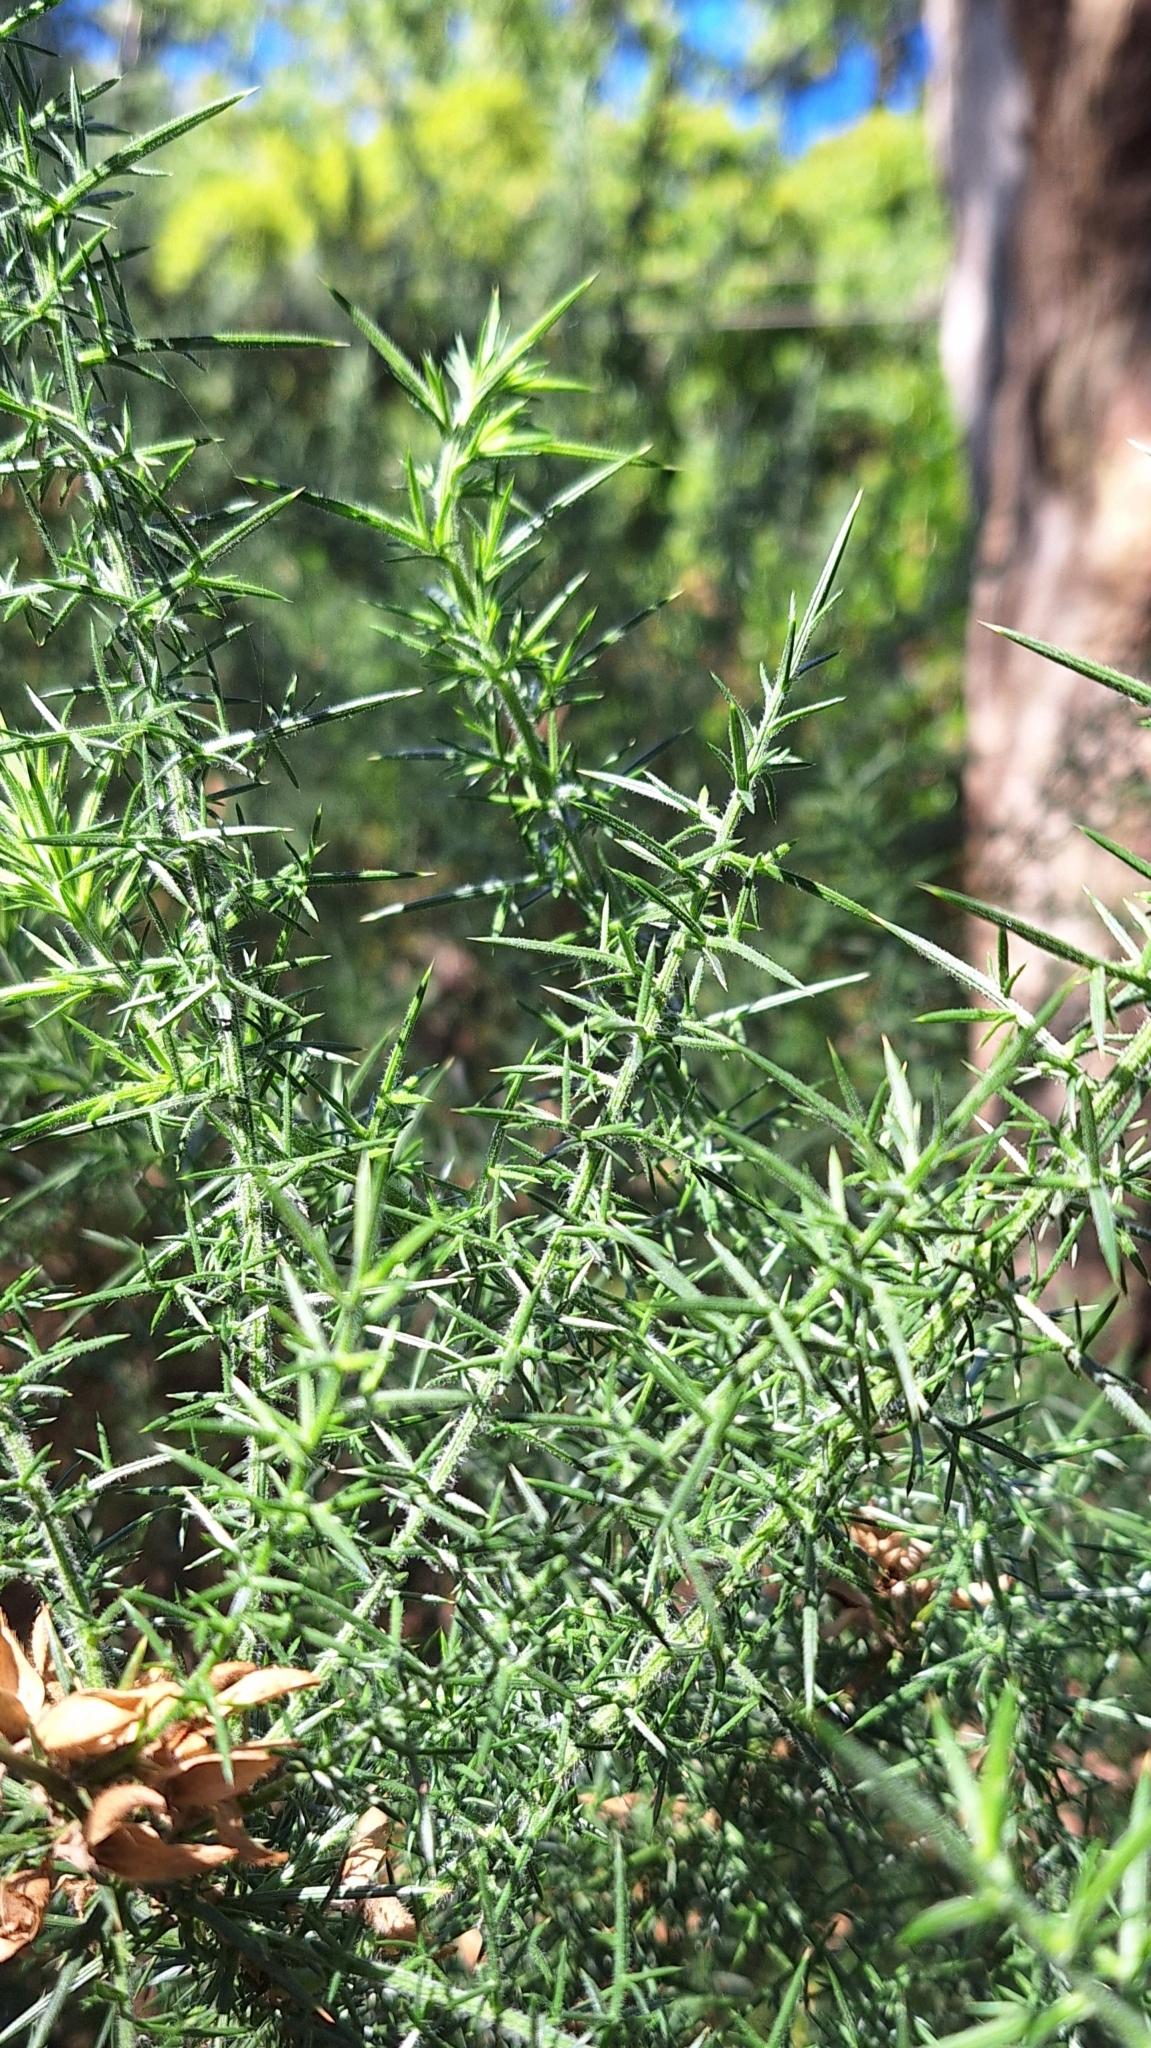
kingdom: Plantae
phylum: Tracheophyta
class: Magnoliopsida
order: Fabales
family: Fabaceae
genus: Ulex
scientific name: Ulex europaeus
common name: Common gorse
